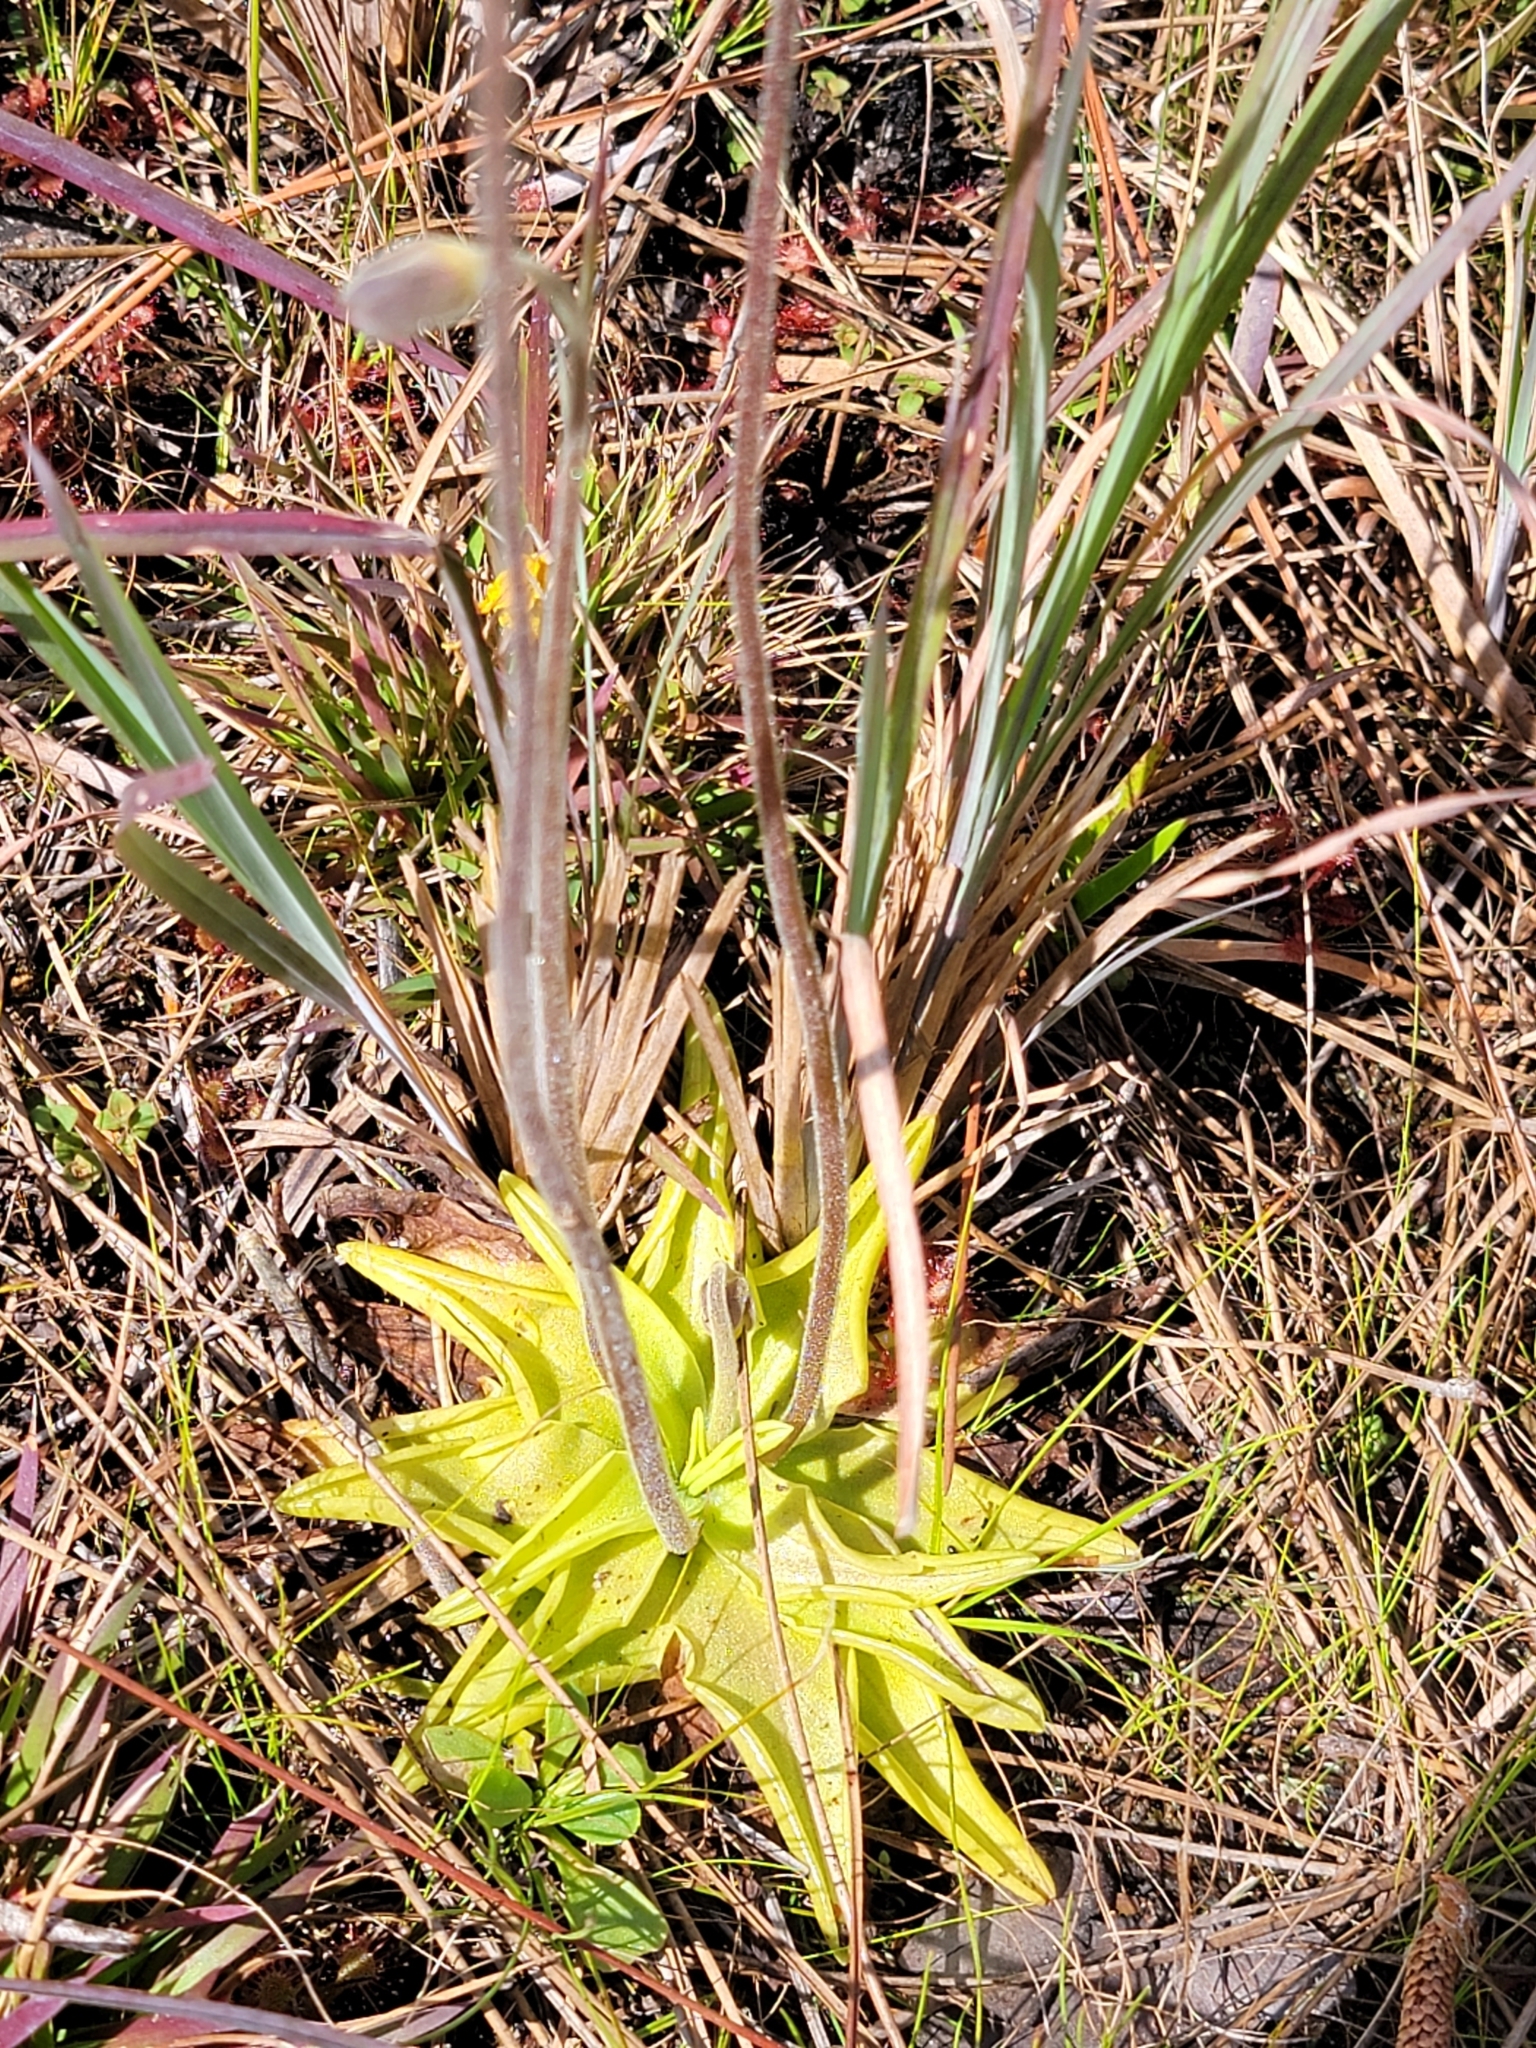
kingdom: Plantae
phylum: Tracheophyta
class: Magnoliopsida
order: Lamiales
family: Lentibulariaceae
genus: Pinguicula
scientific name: Pinguicula lutea
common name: Yellow butterwort
